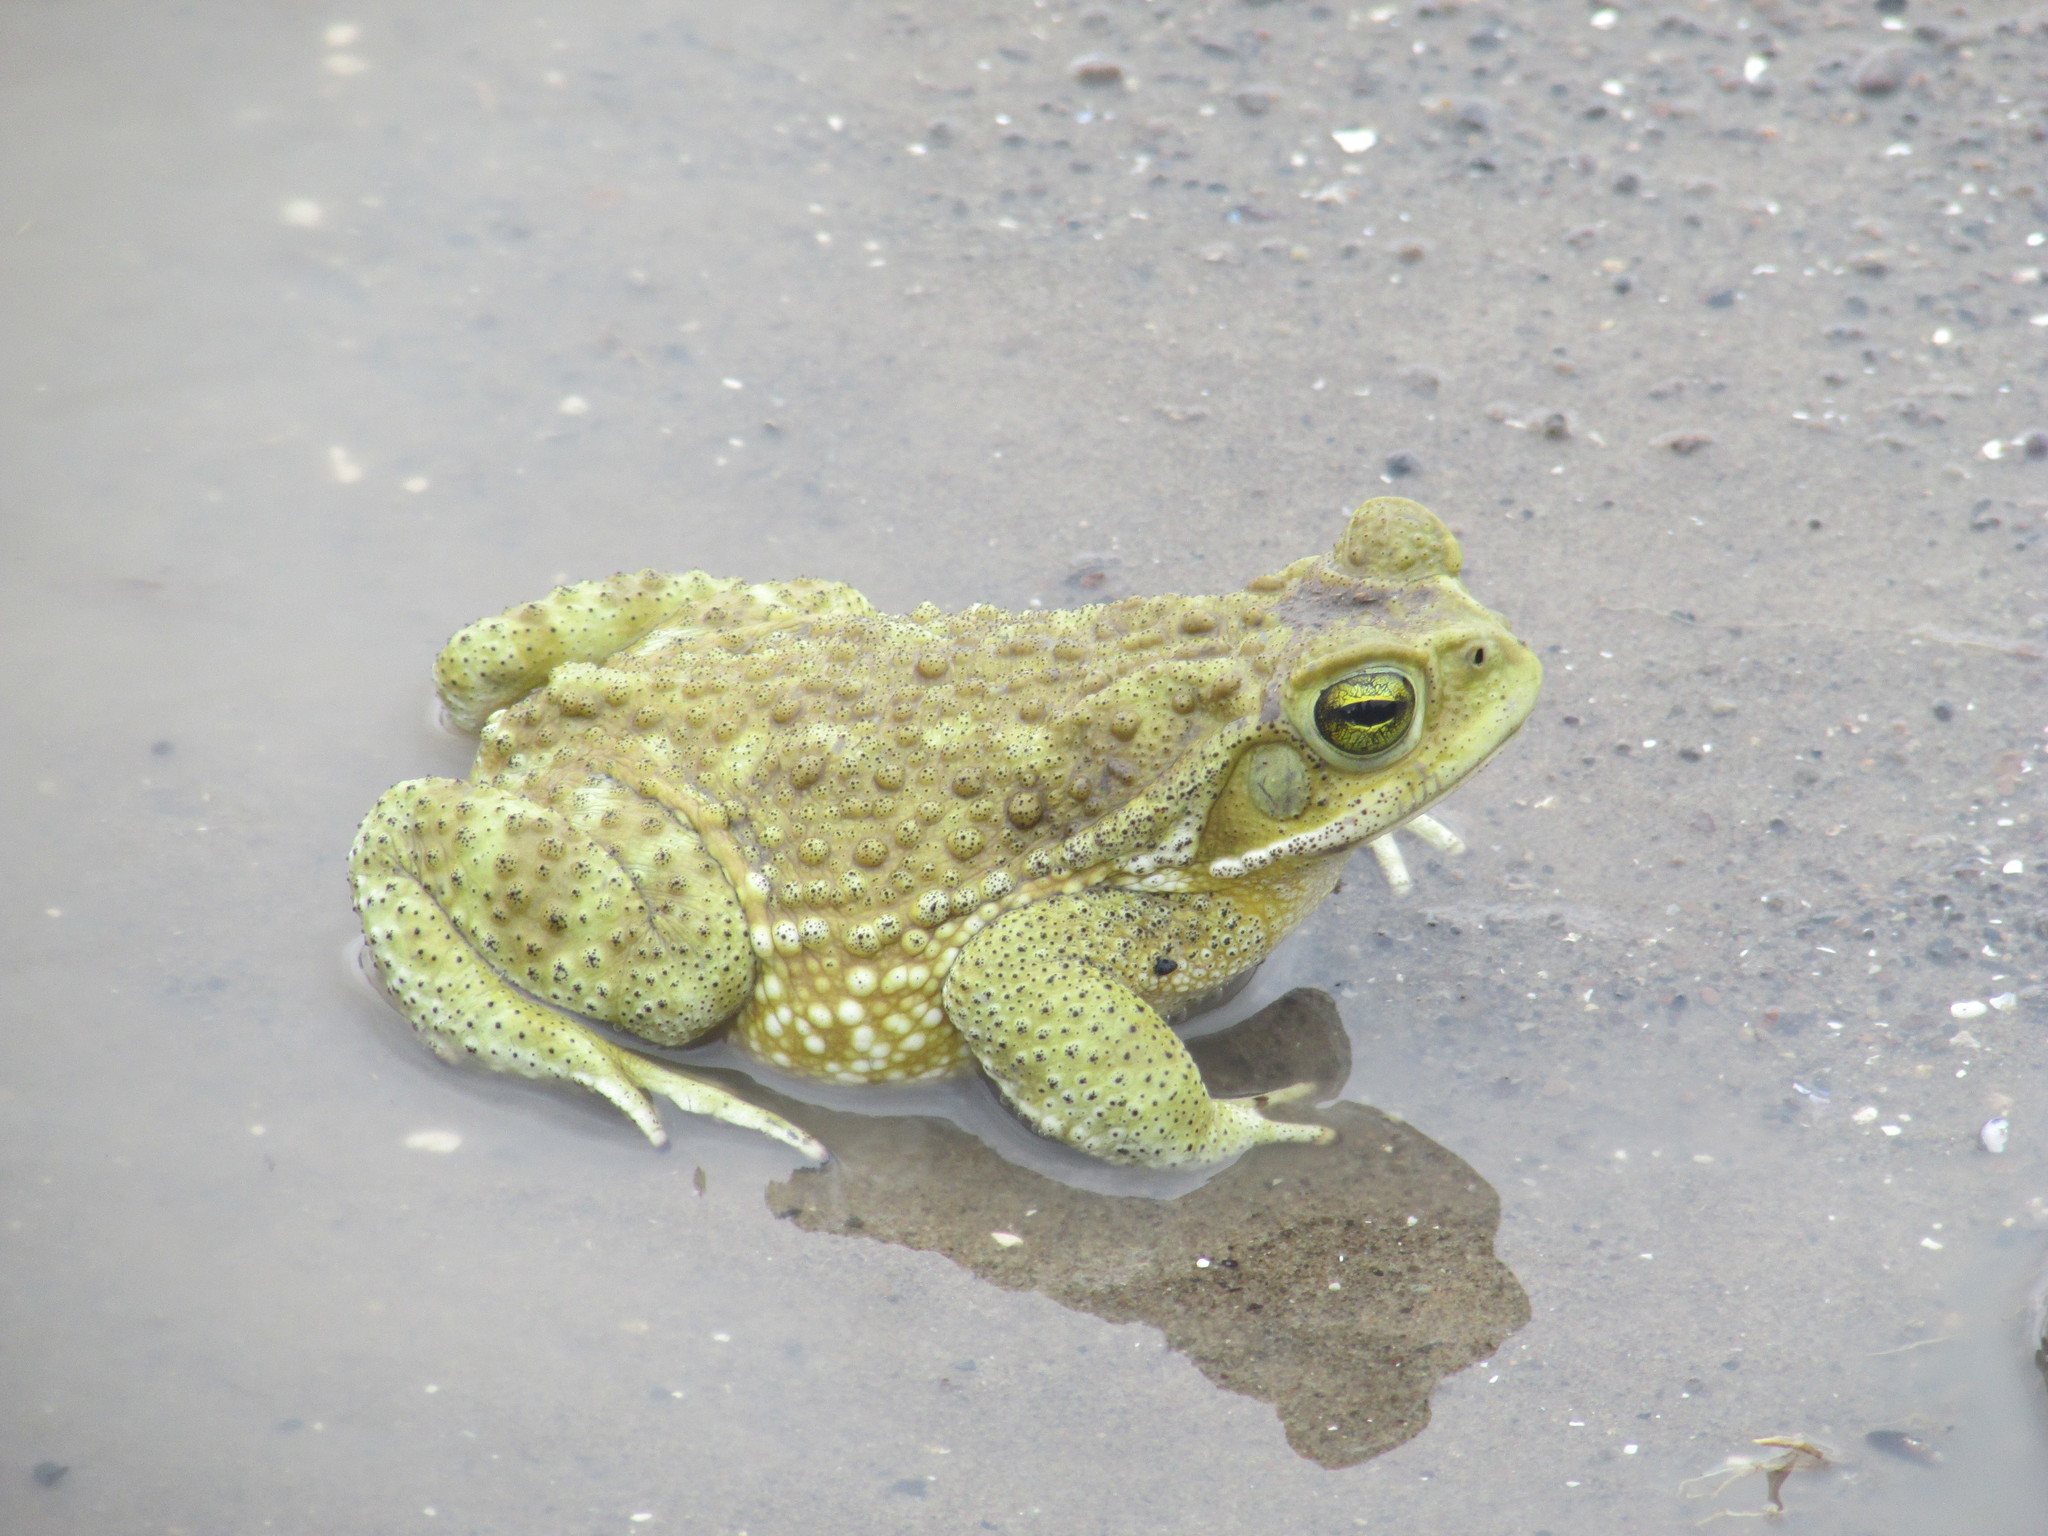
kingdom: Animalia
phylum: Chordata
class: Amphibia
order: Anura
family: Bufonidae
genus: Rhinella
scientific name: Rhinella arenarum
